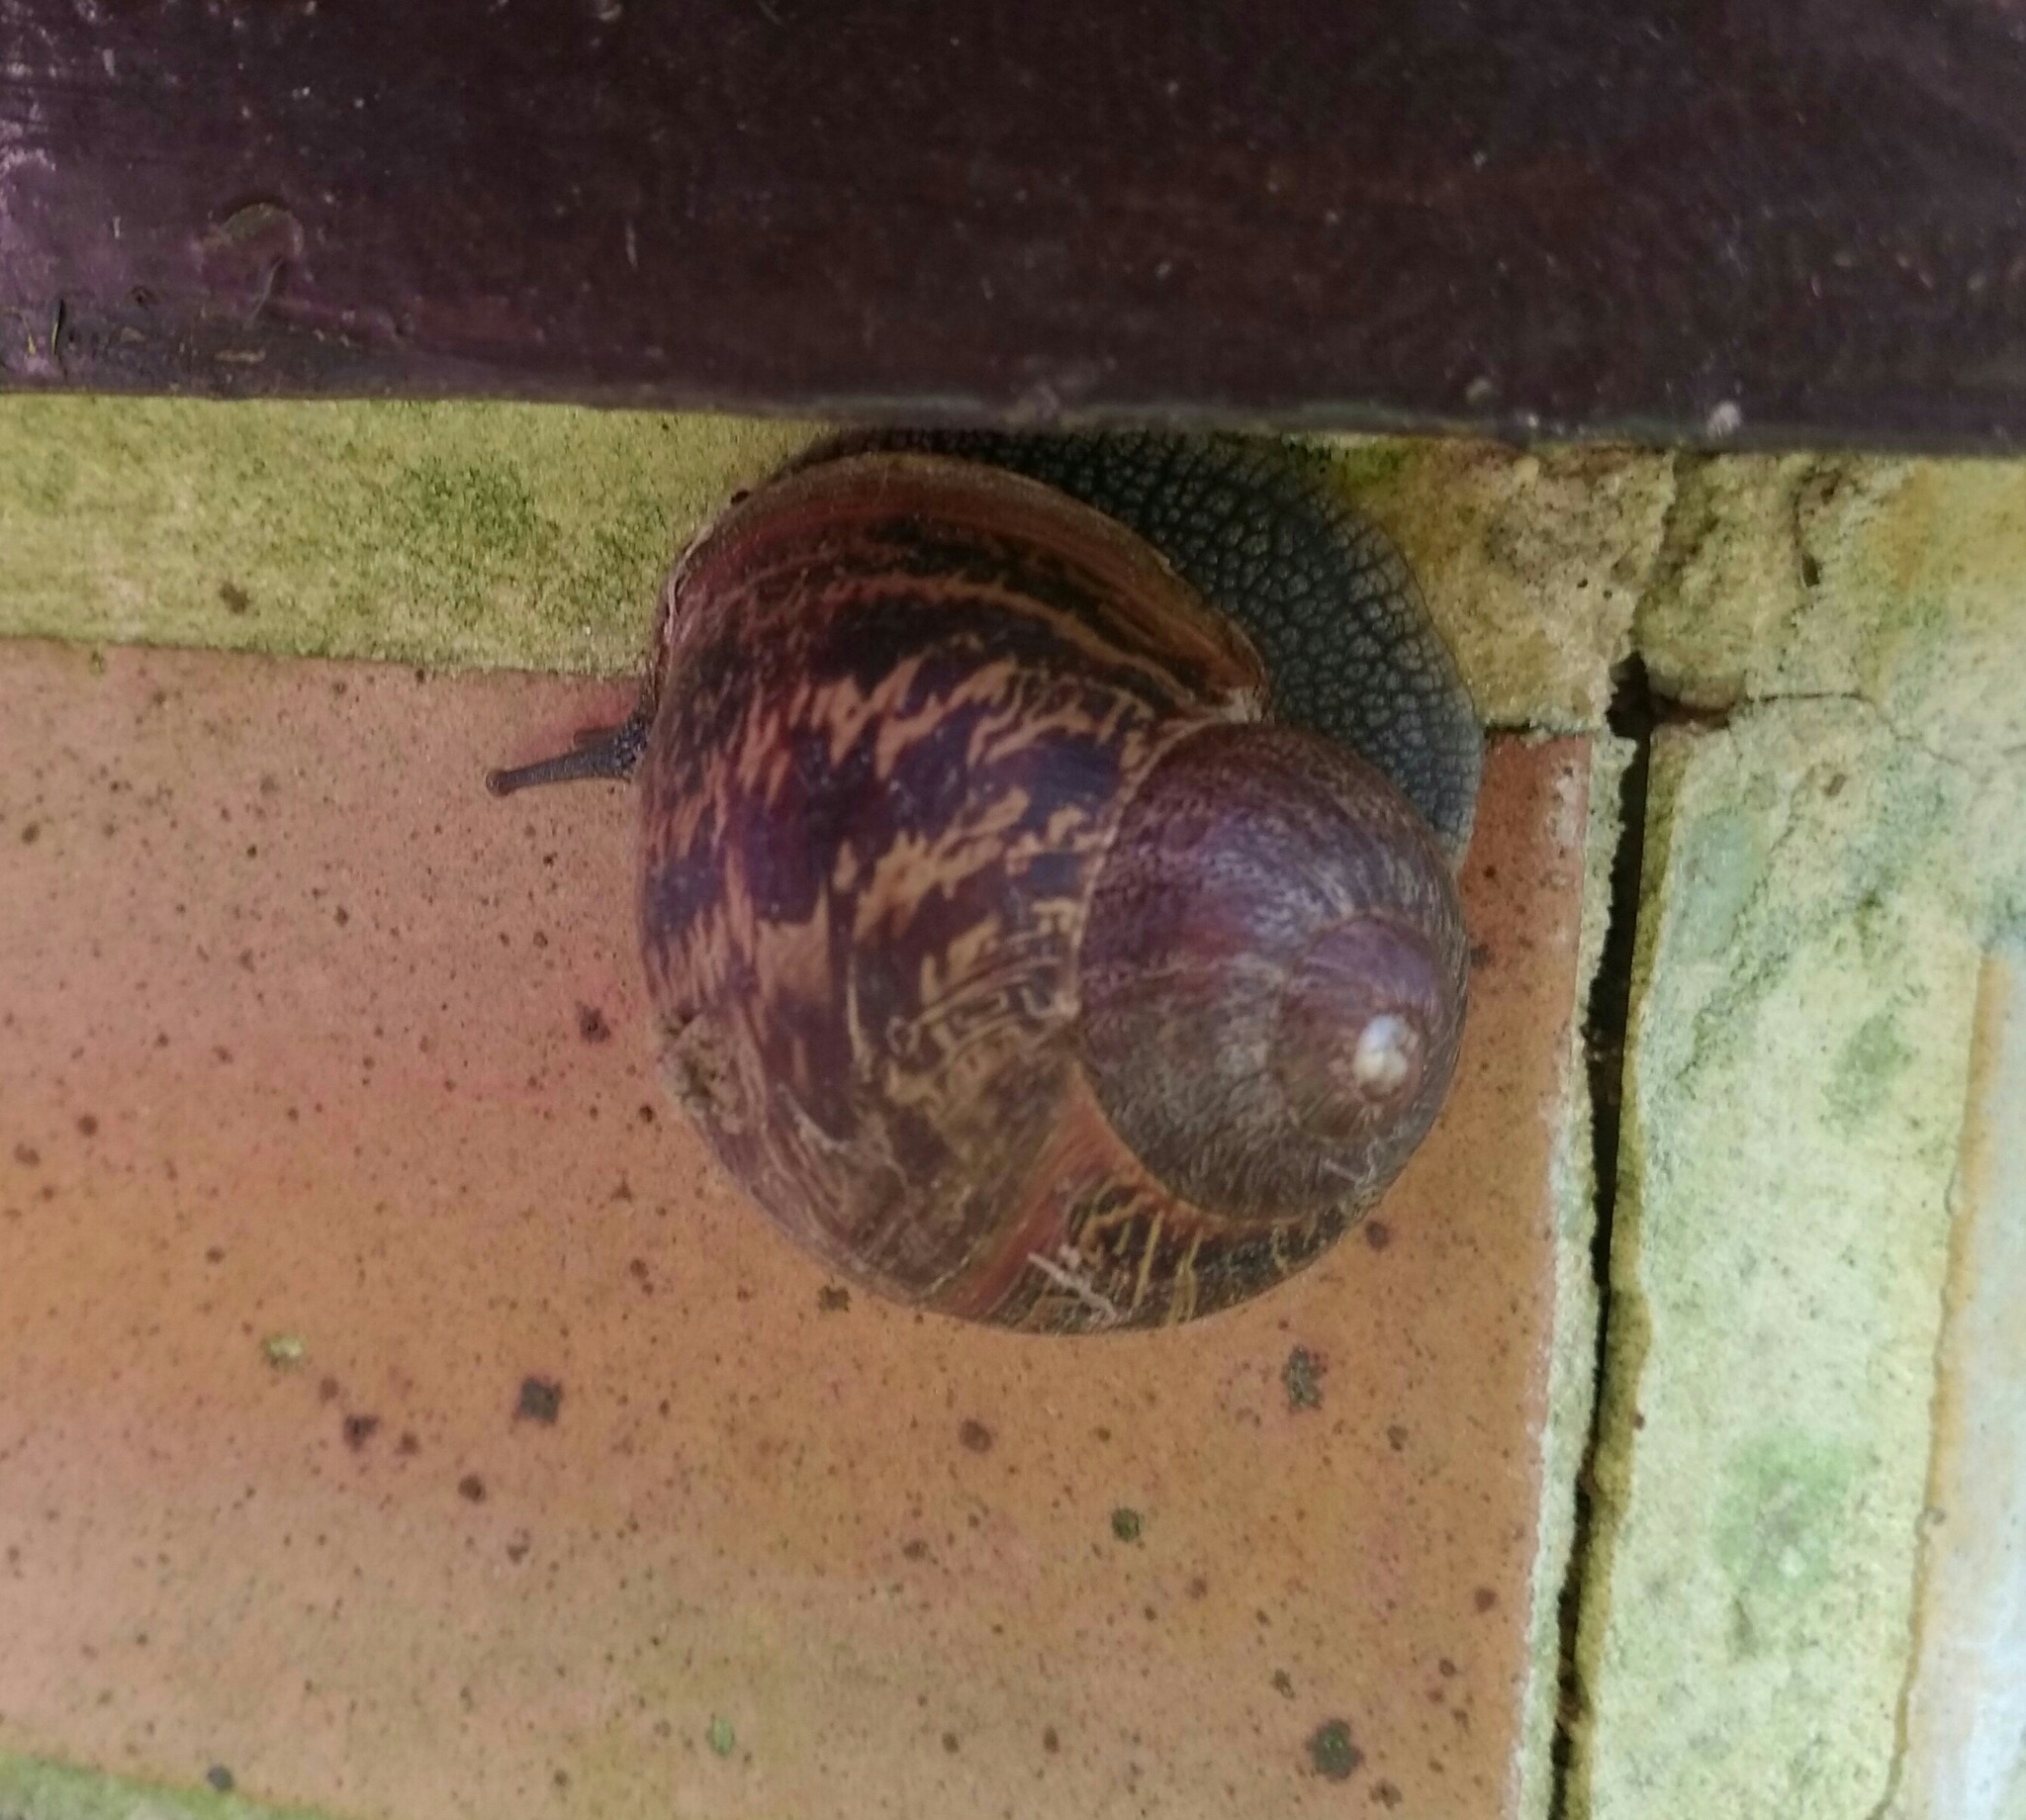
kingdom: Animalia
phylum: Mollusca
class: Gastropoda
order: Stylommatophora
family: Helicidae
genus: Cornu
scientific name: Cornu aspersum
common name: Brown garden snail
